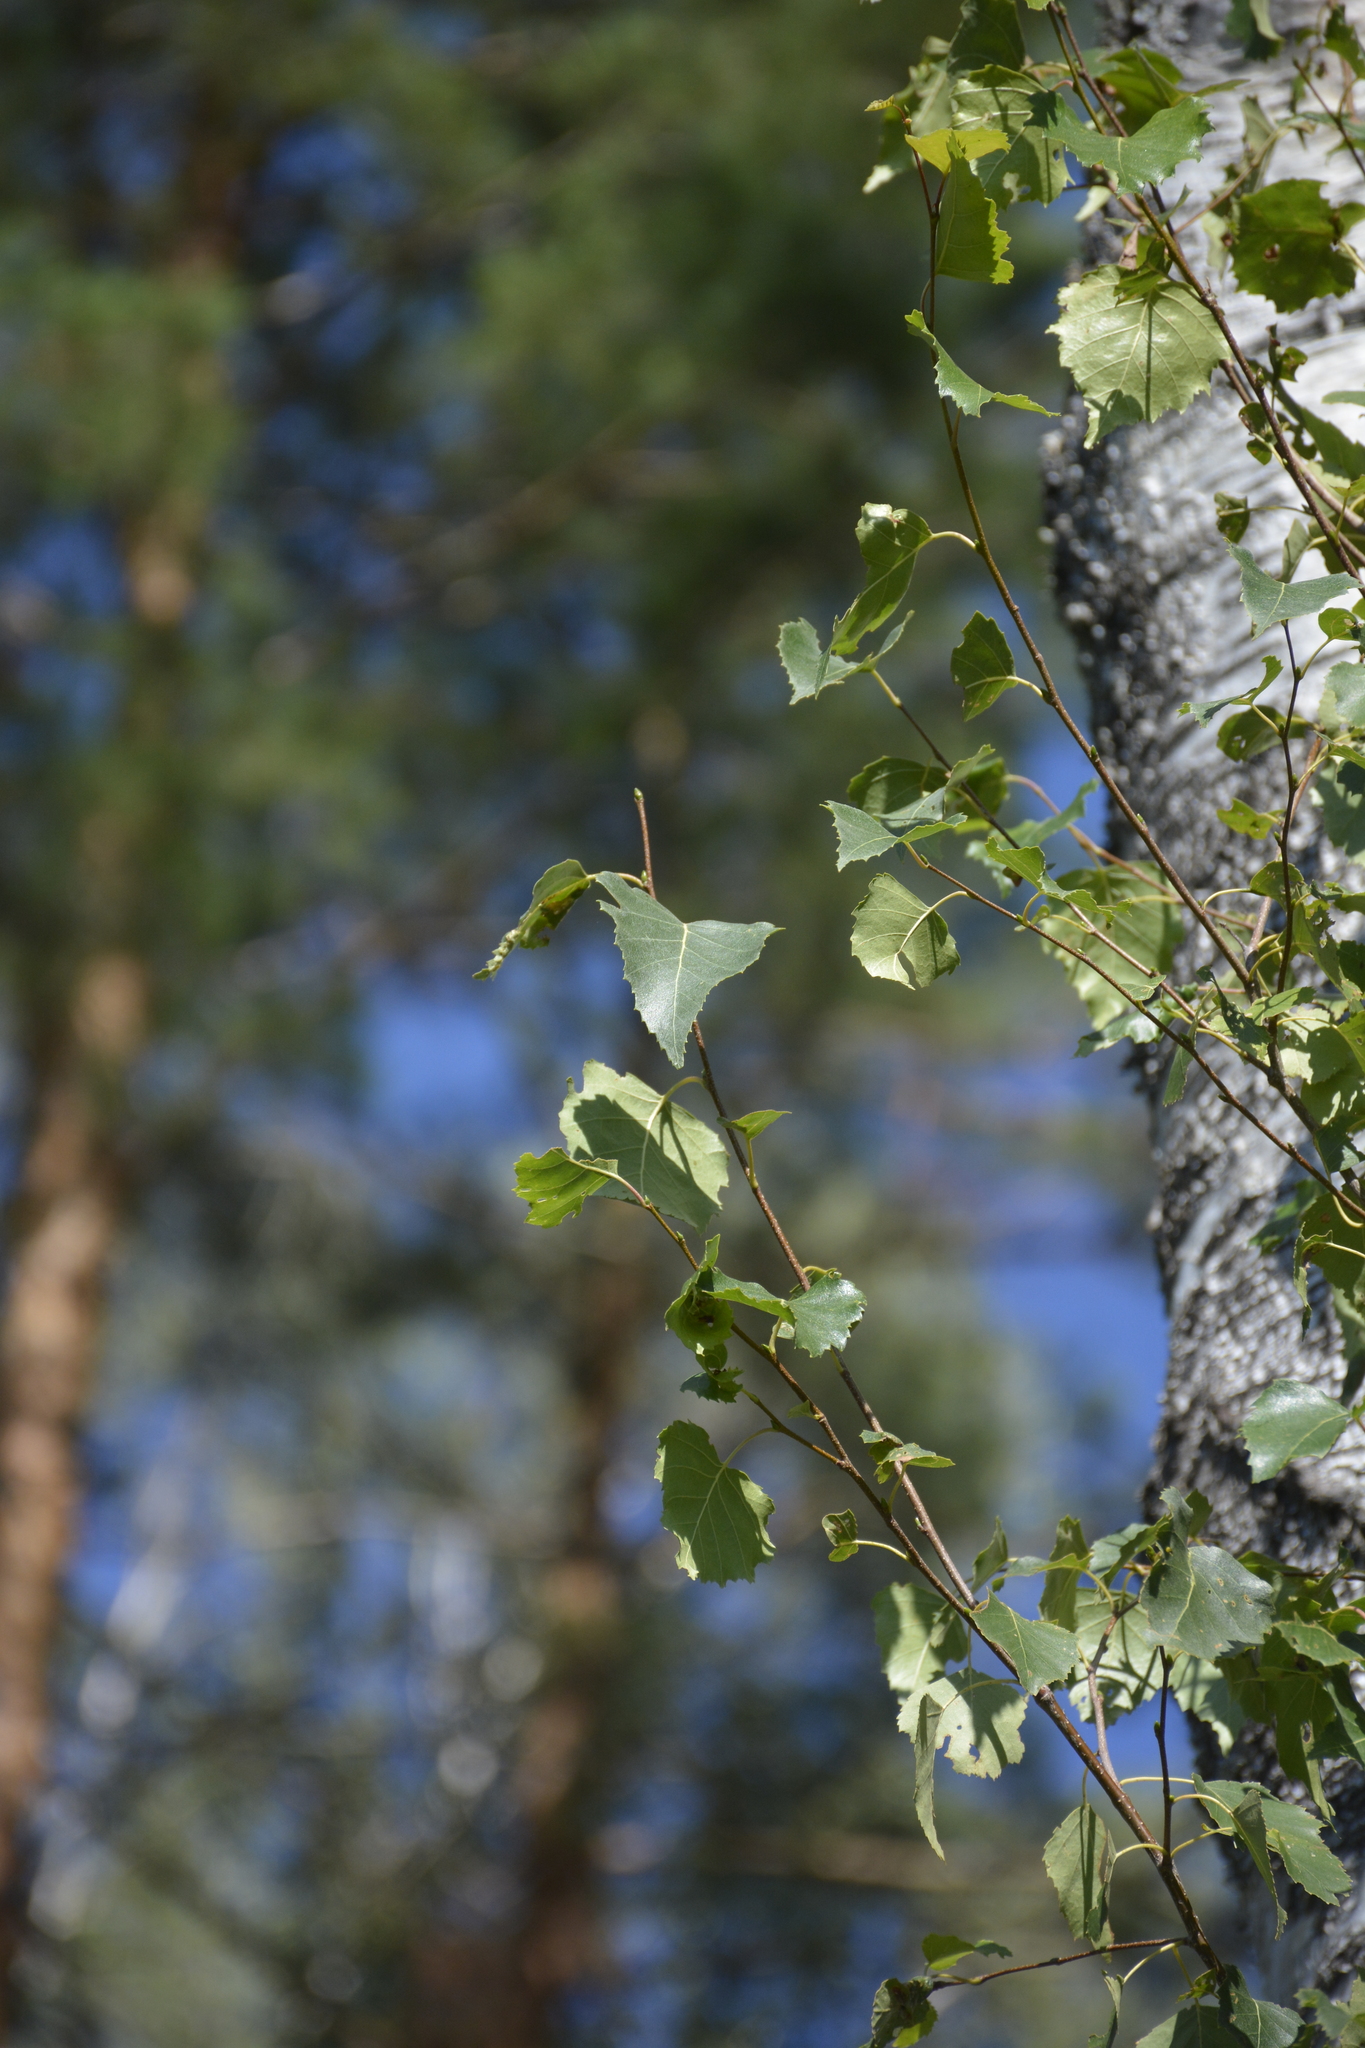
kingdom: Plantae
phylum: Tracheophyta
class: Magnoliopsida
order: Fagales
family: Betulaceae
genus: Betula
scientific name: Betula pendula
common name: Silver birch
